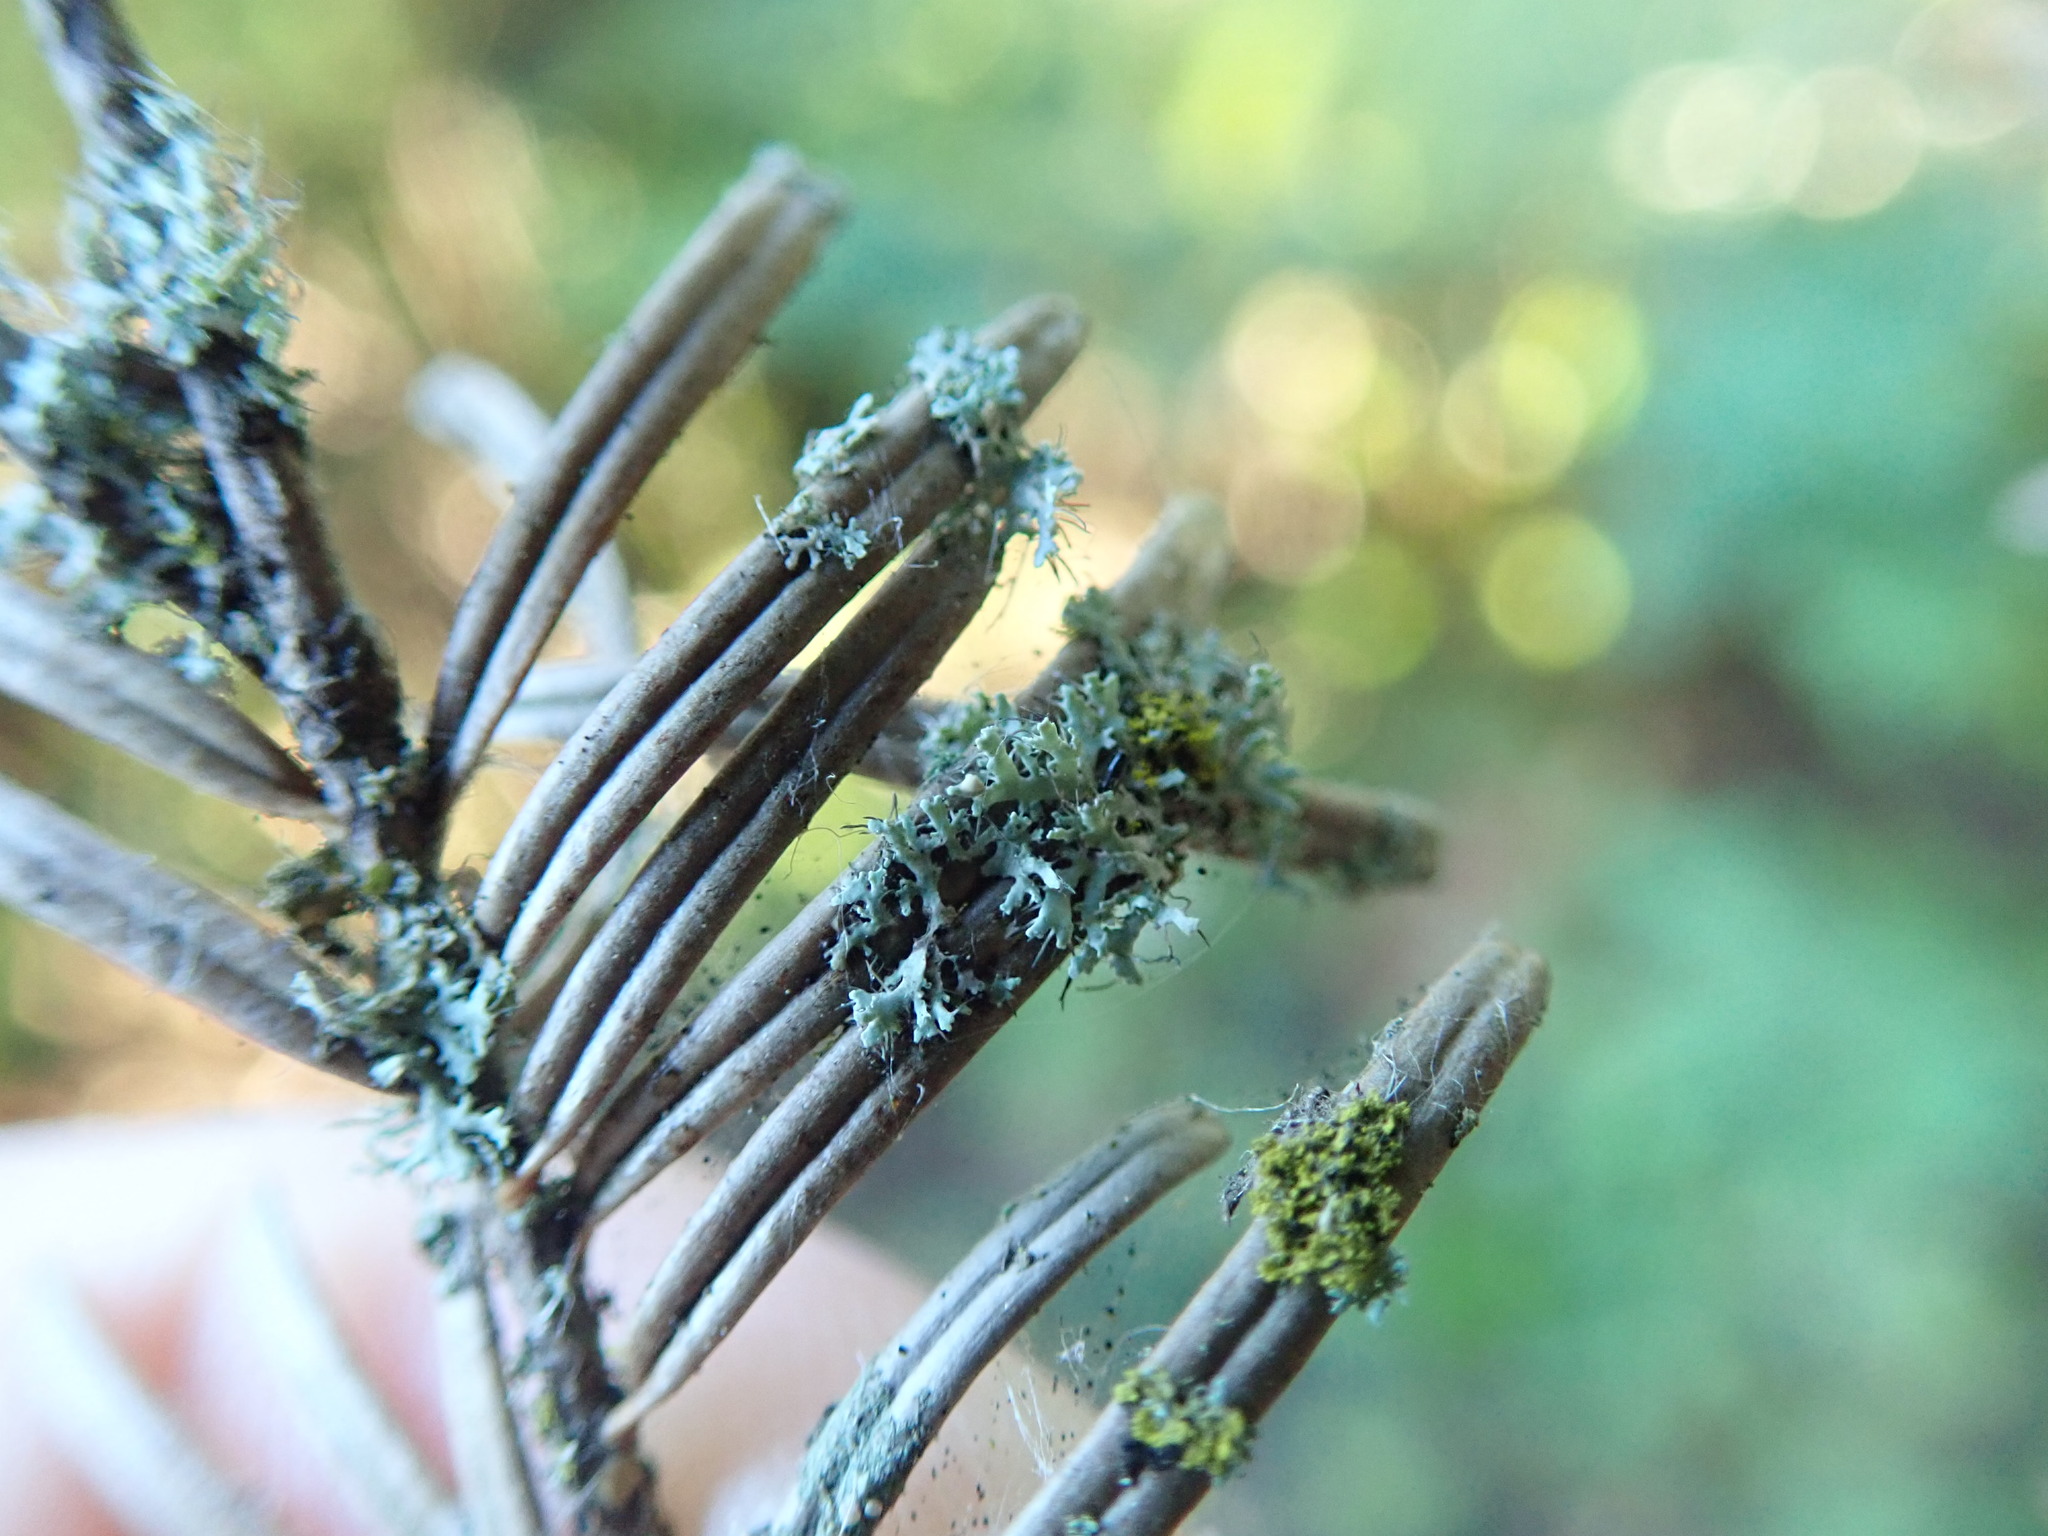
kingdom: Fungi
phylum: Ascomycota
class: Lecanoromycetes
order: Caliciales
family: Physciaceae
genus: Physcia
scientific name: Physcia tenella
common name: Fringed rosette lichen
